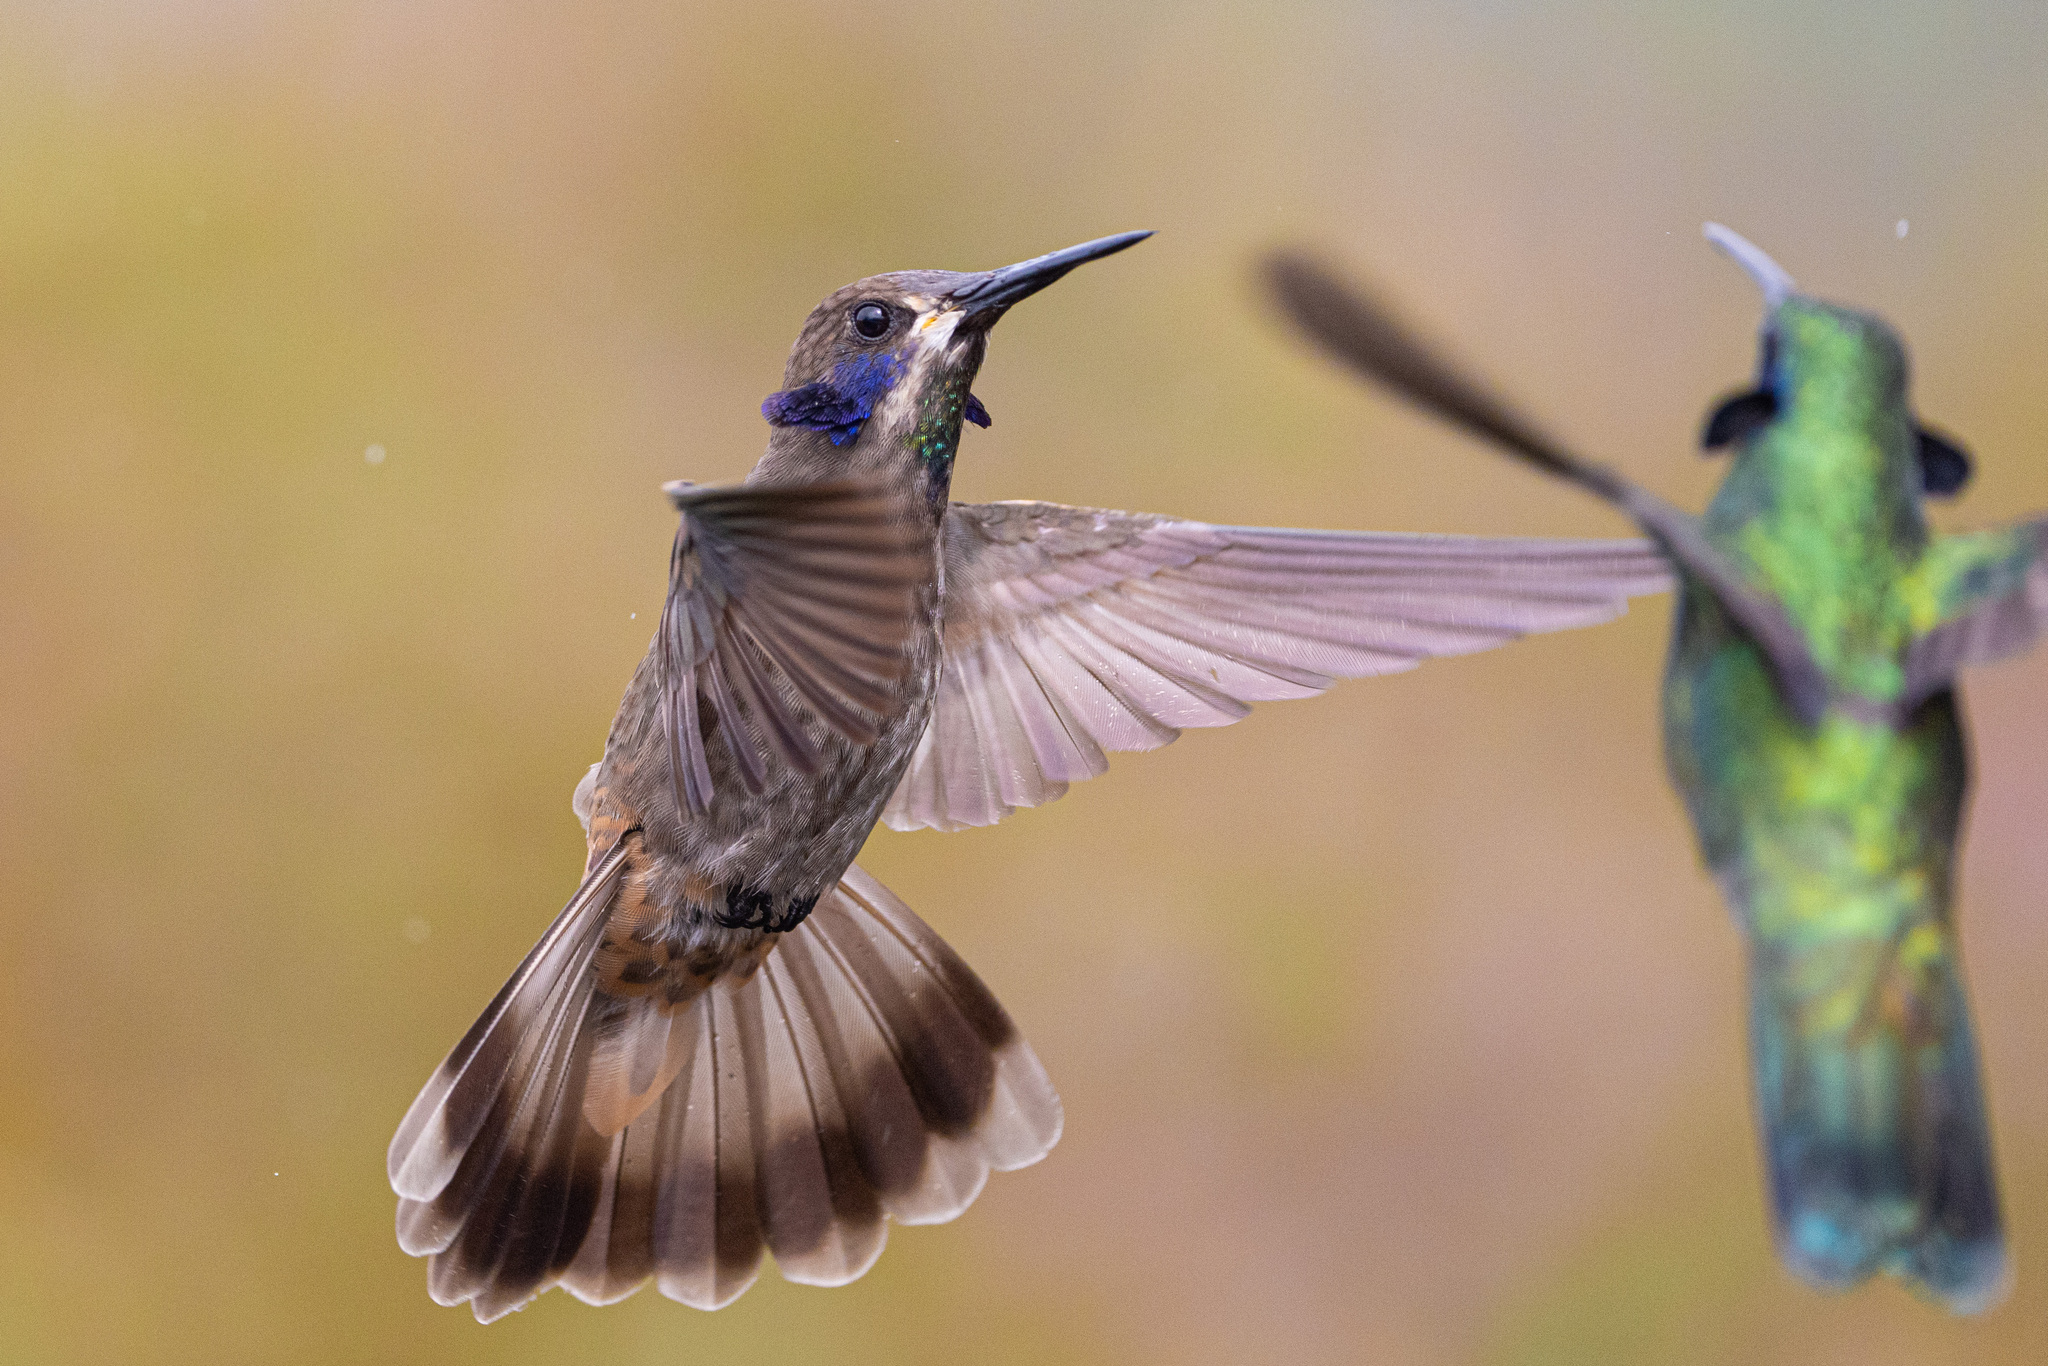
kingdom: Animalia
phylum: Chordata
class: Aves
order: Apodiformes
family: Trochilidae
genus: Colibri
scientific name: Colibri delphinae
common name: Brown violetear
